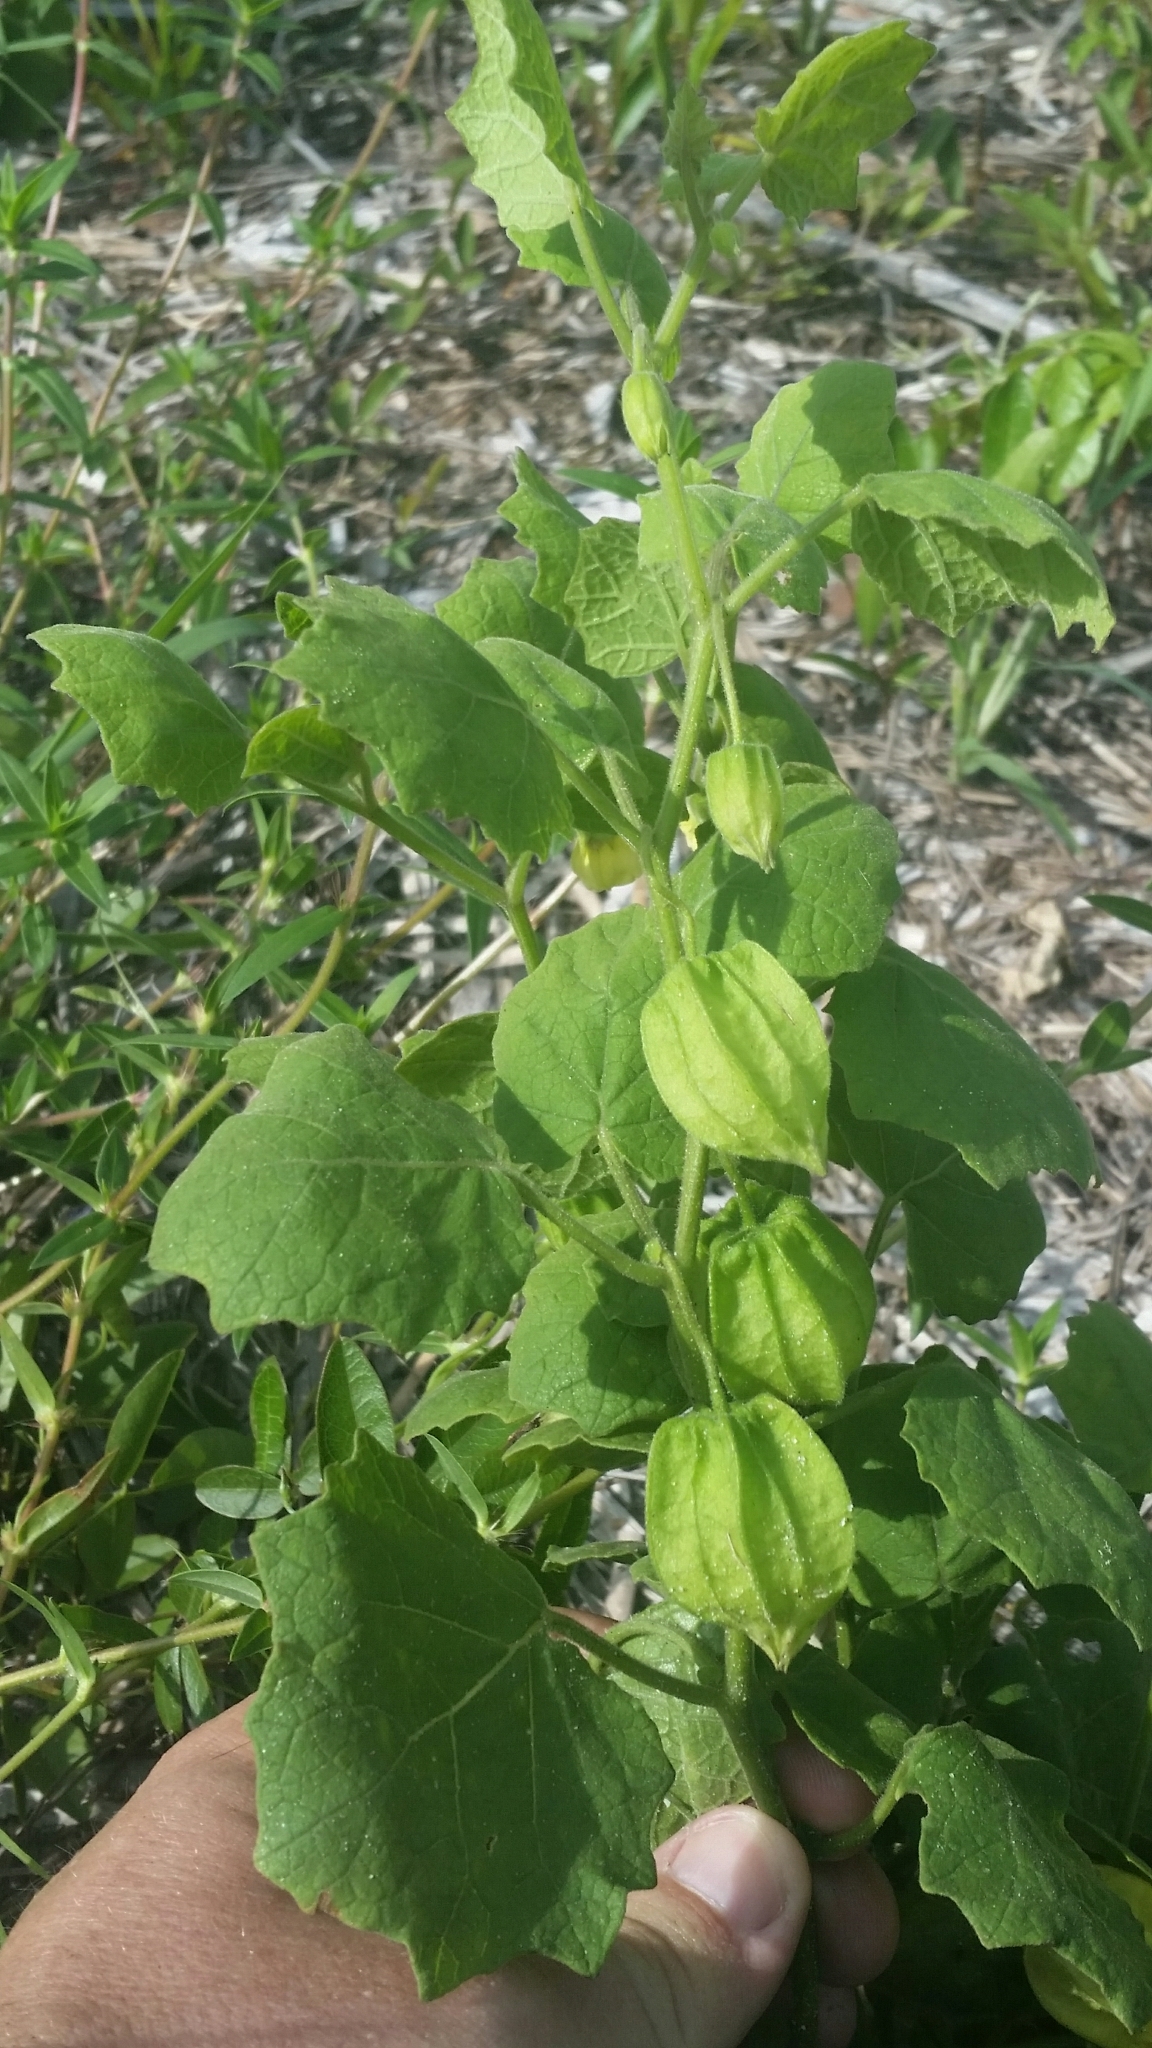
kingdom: Plantae
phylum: Tracheophyta
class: Magnoliopsida
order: Solanales
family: Solanaceae
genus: Physalis
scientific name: Physalis arenicola
